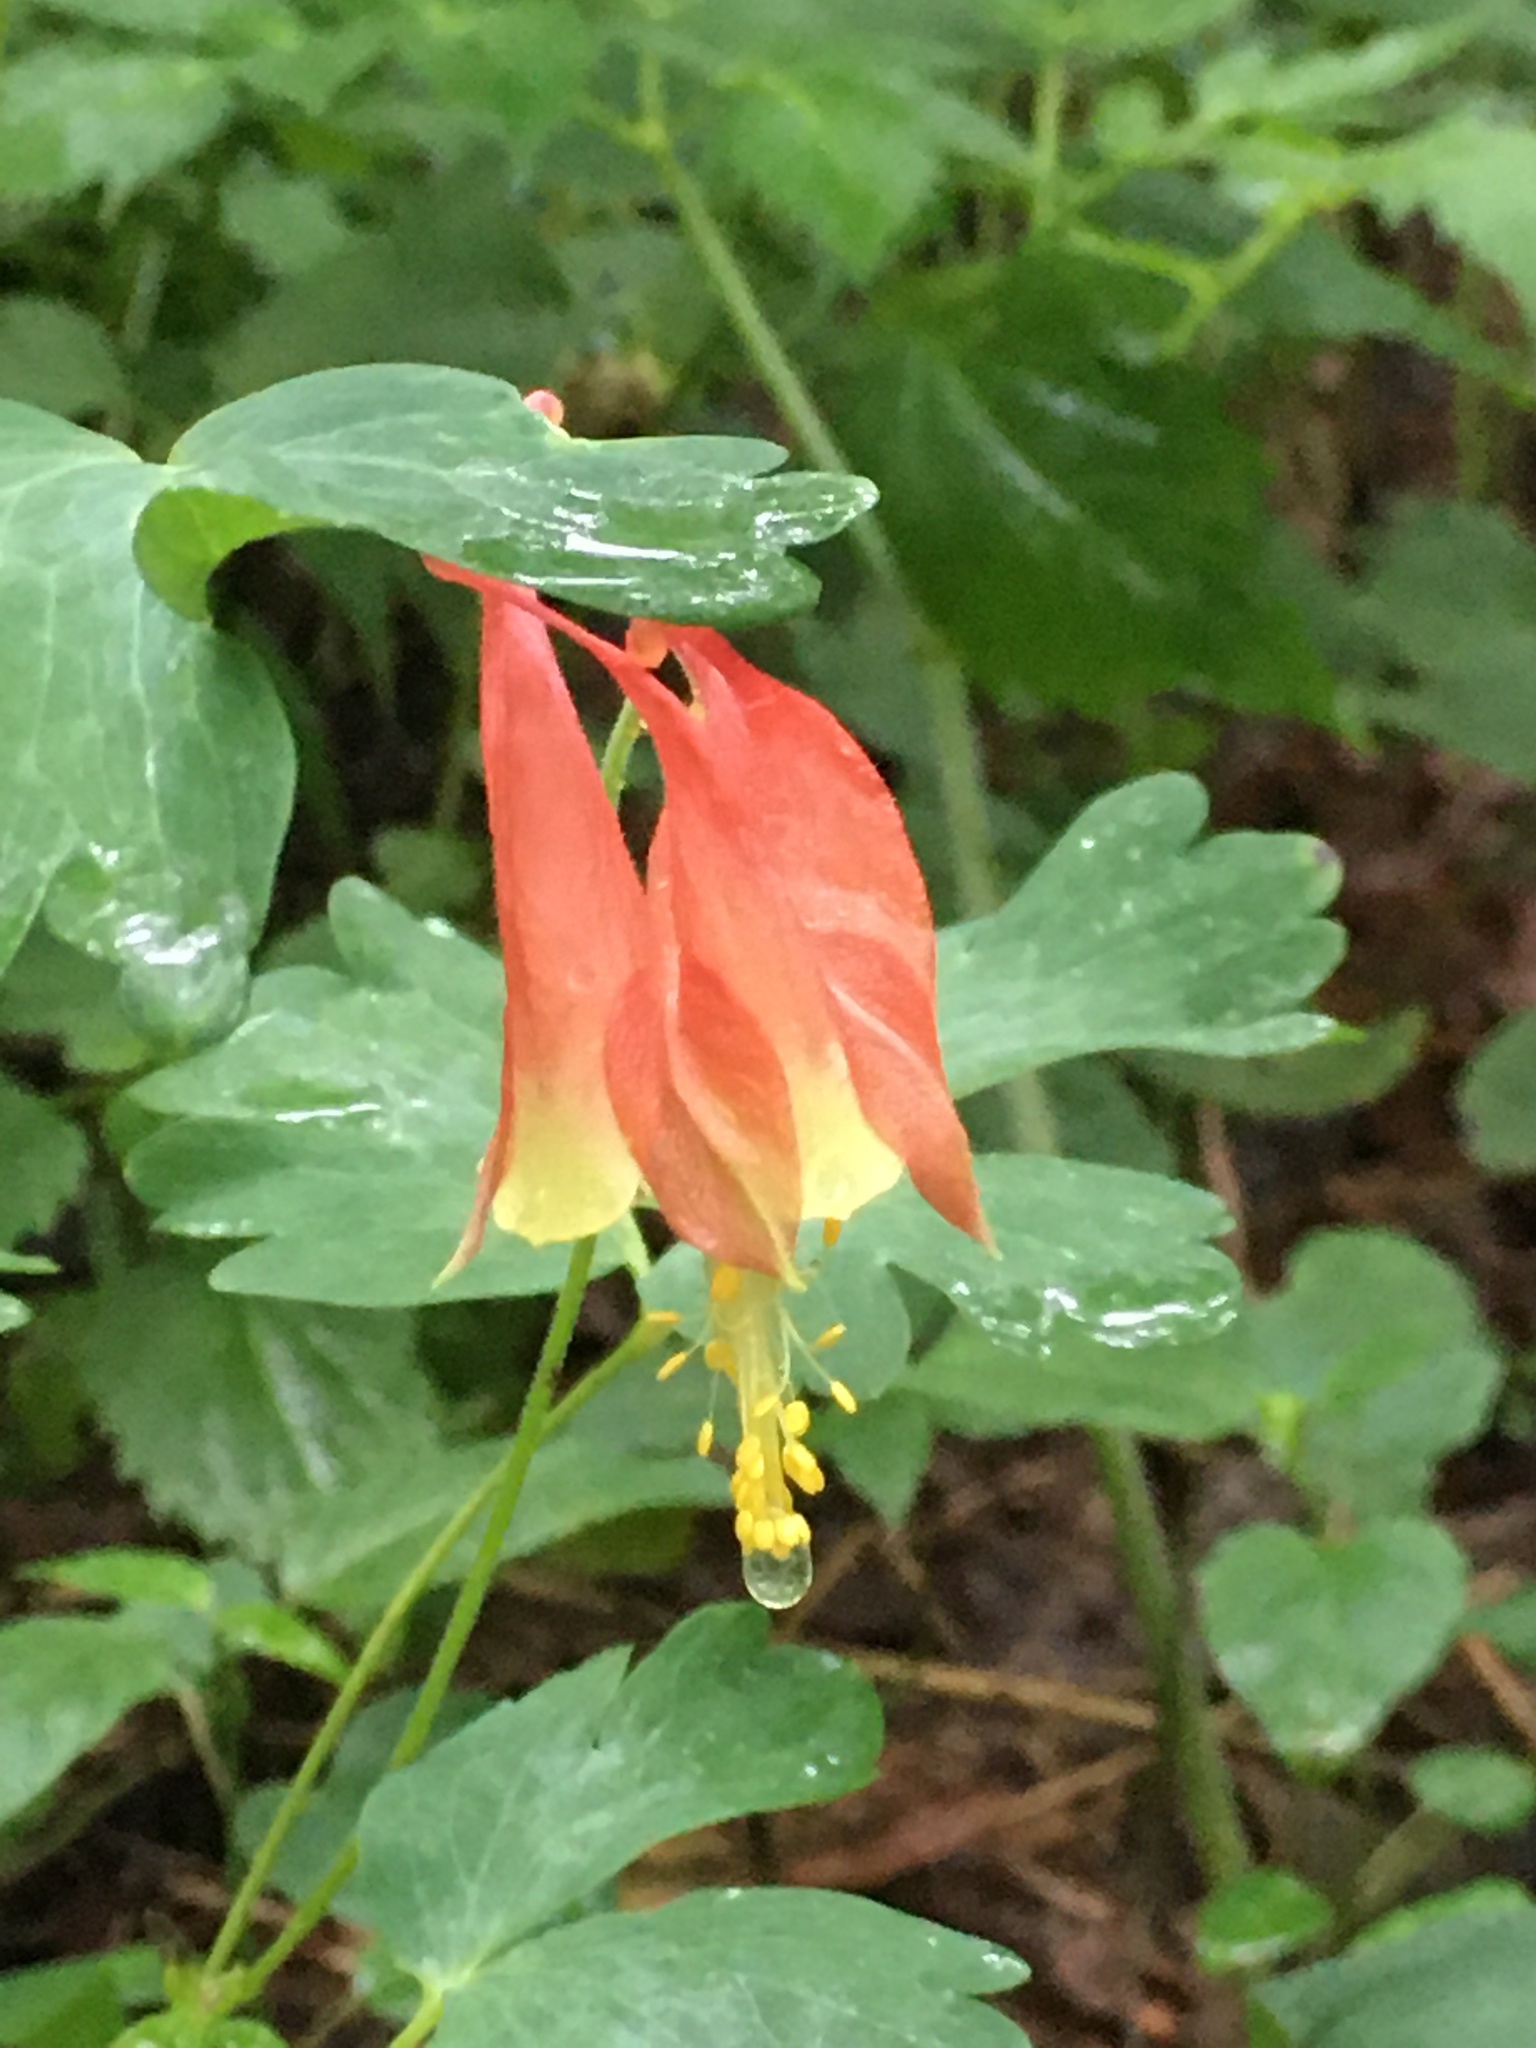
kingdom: Plantae
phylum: Tracheophyta
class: Magnoliopsida
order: Ranunculales
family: Ranunculaceae
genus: Aquilegia
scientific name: Aquilegia canadensis
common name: American columbine
